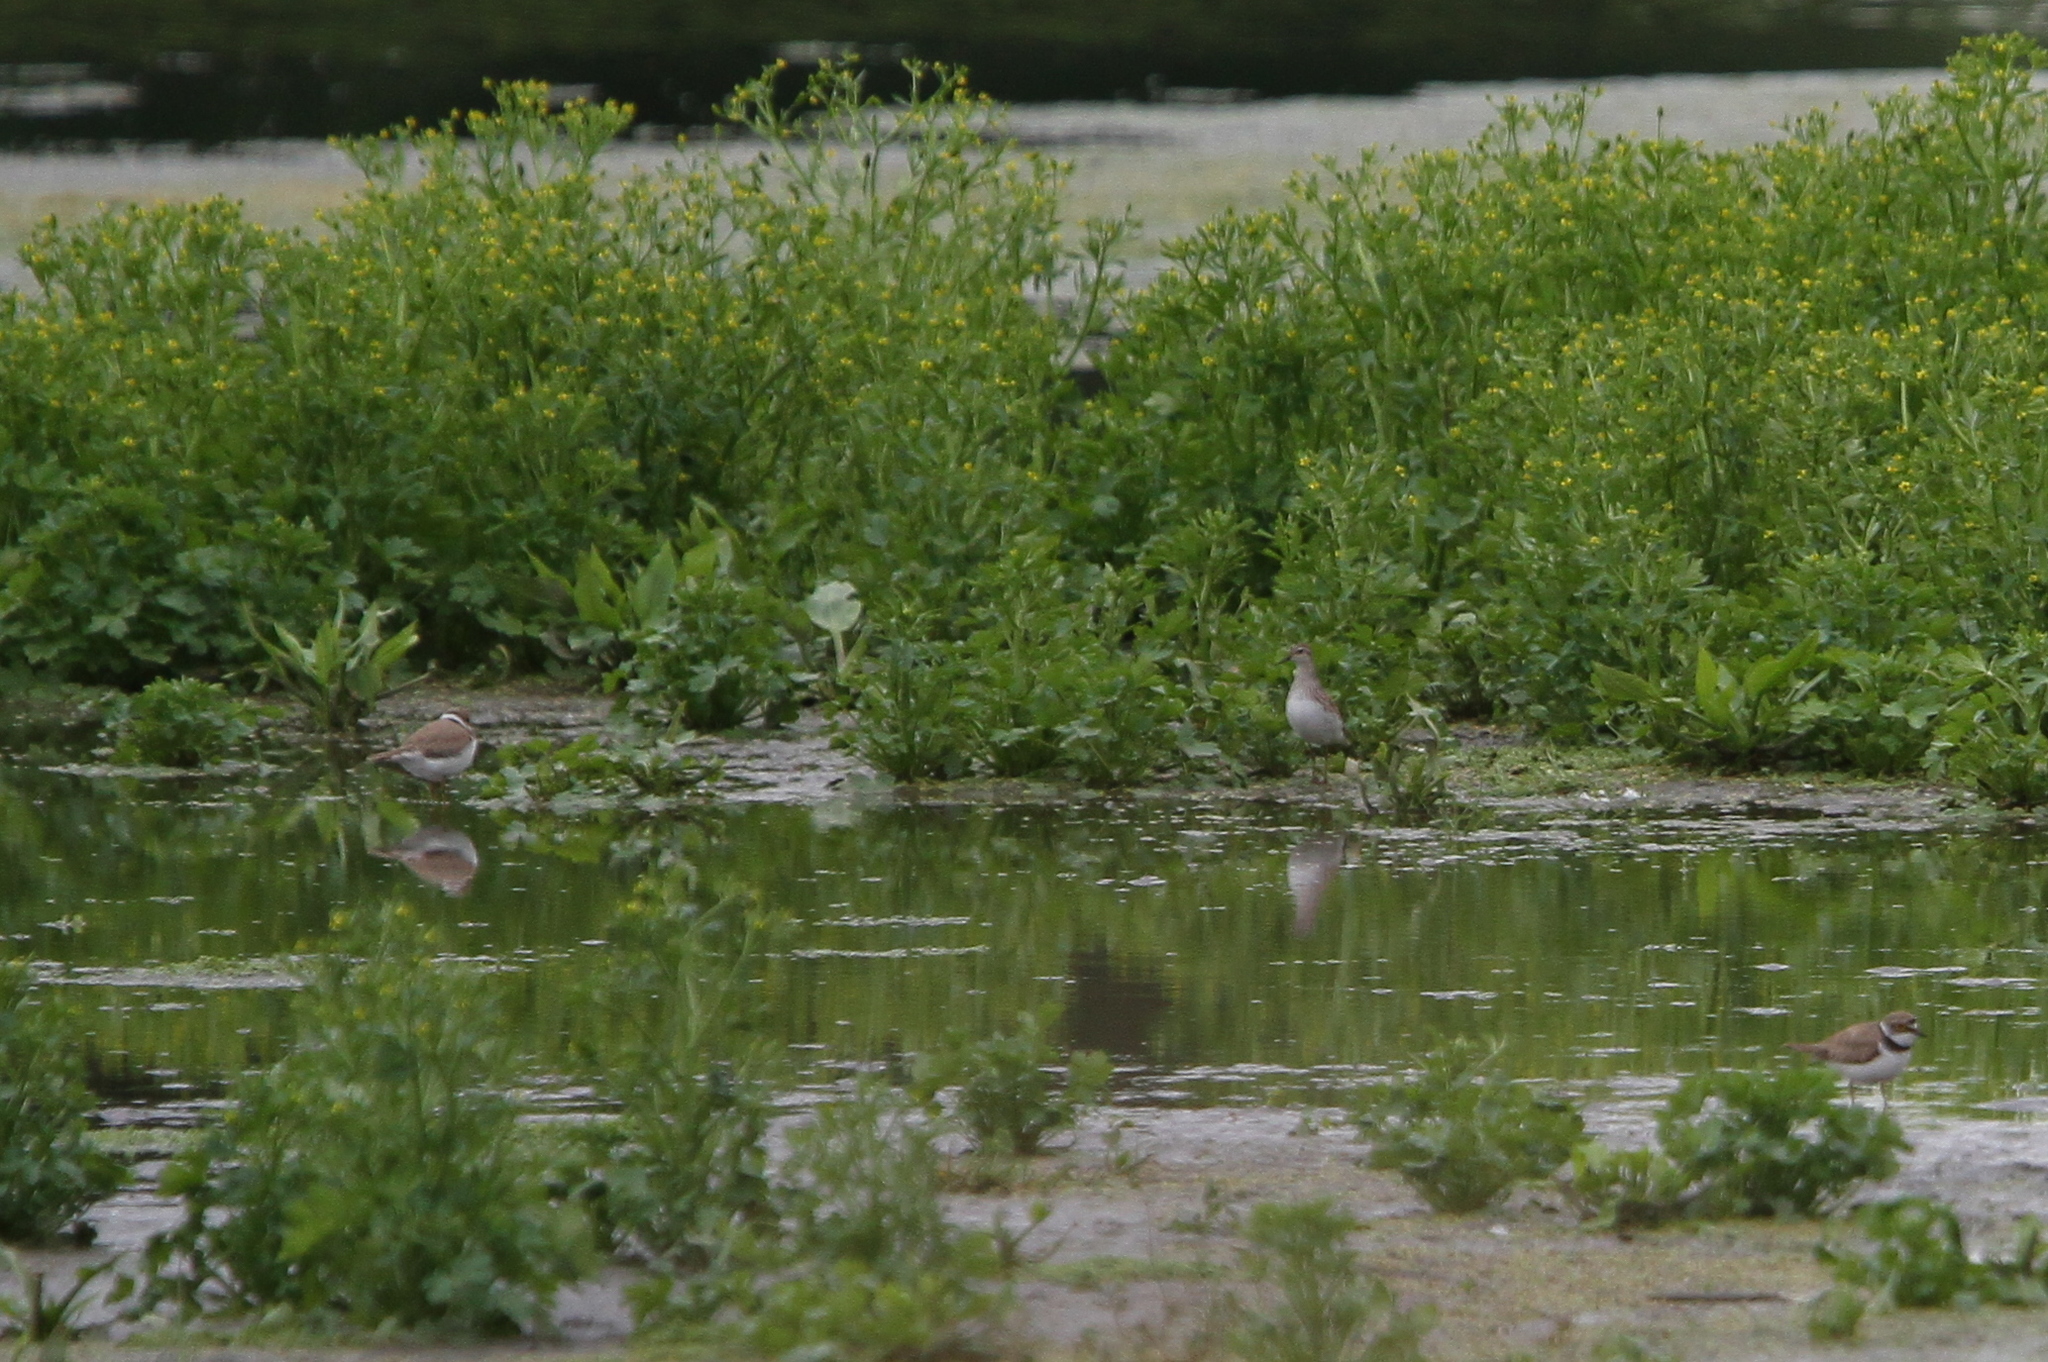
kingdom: Animalia
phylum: Chordata
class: Aves
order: Charadriiformes
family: Scolopacidae
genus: Calidris
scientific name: Calidris subminuta
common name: Long-toed stint
